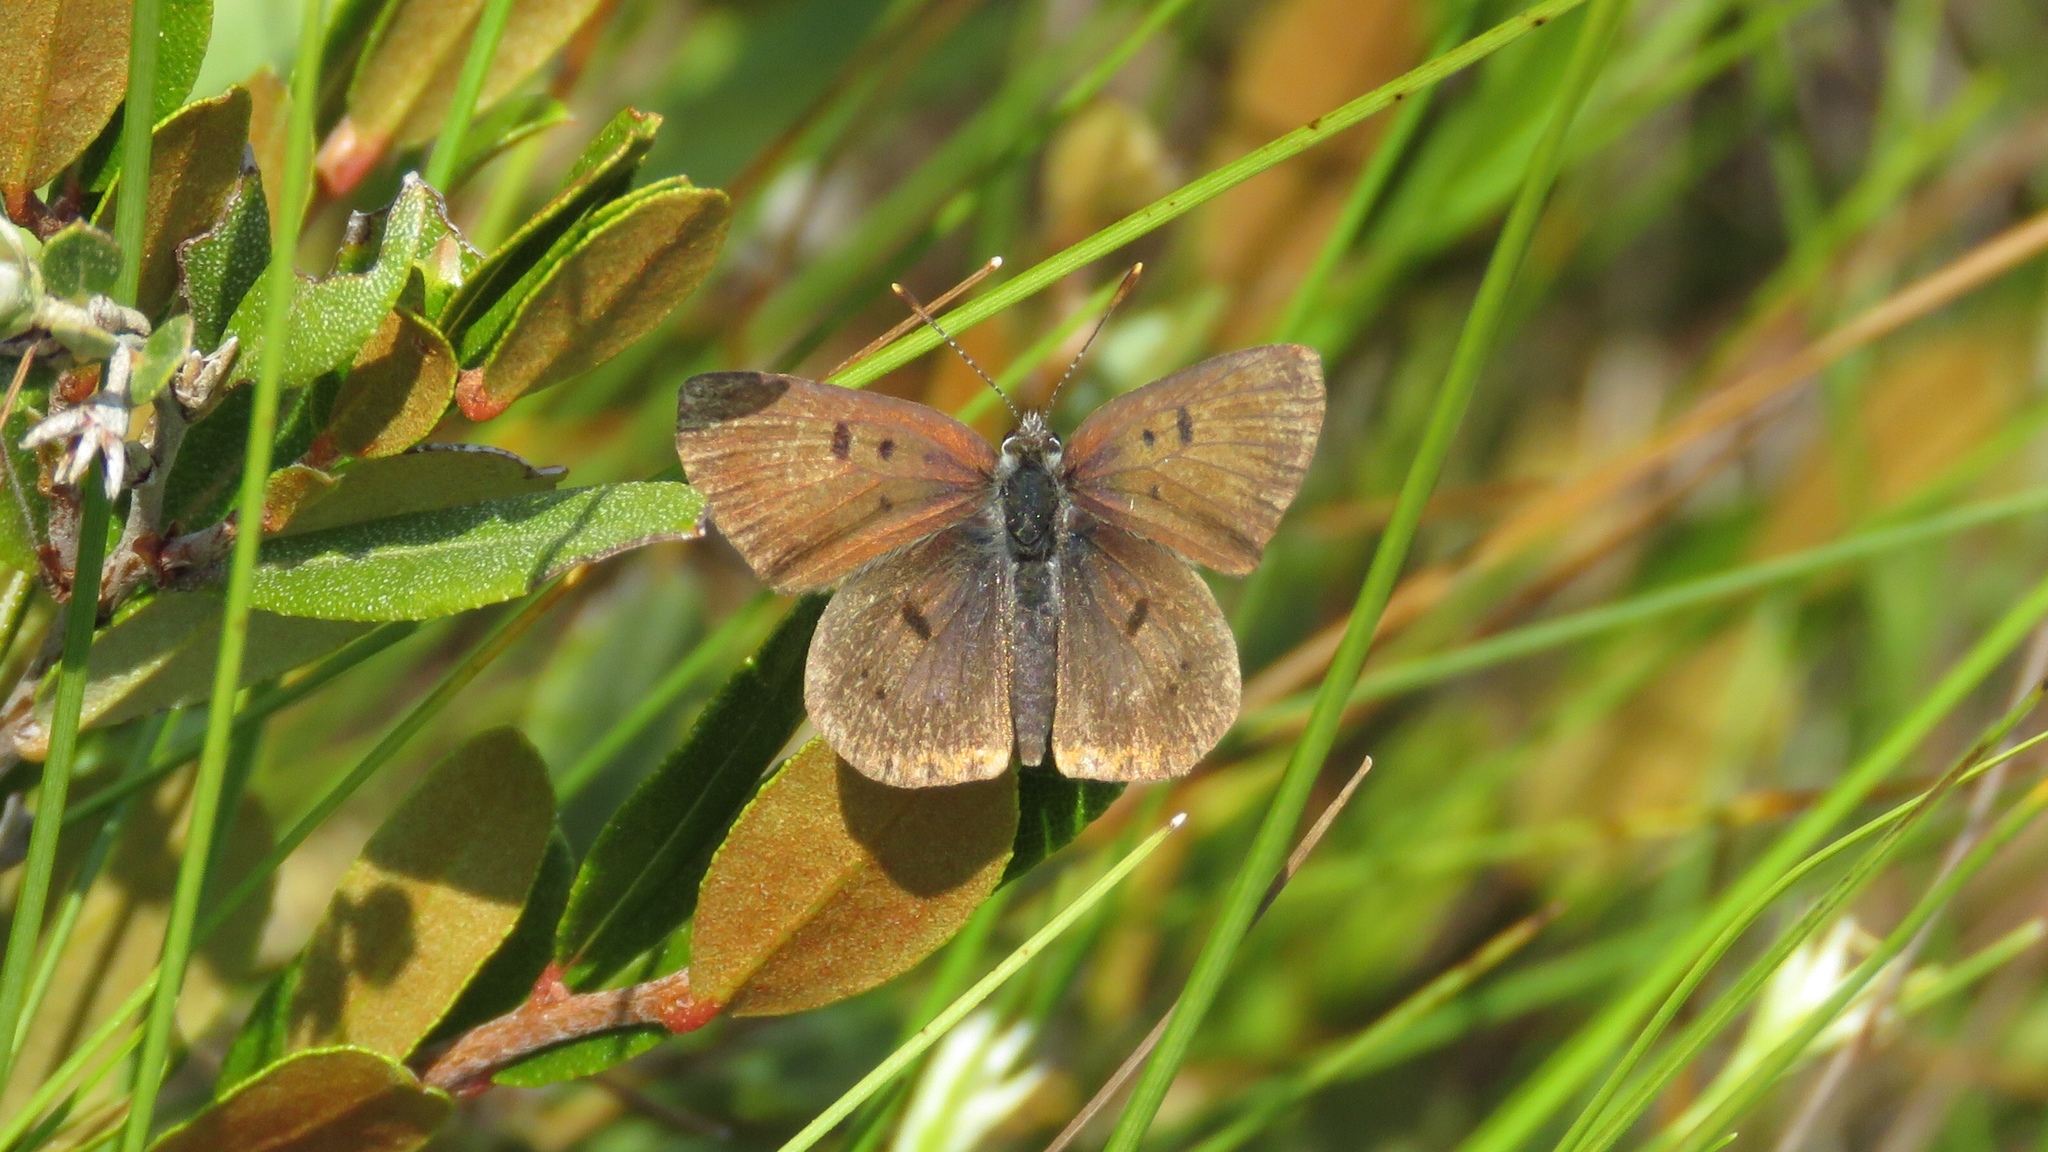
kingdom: Animalia
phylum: Arthropoda
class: Insecta
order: Lepidoptera
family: Lycaenidae
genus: Tharsalea
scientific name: Tharsalea epixanthe
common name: Bog copper
